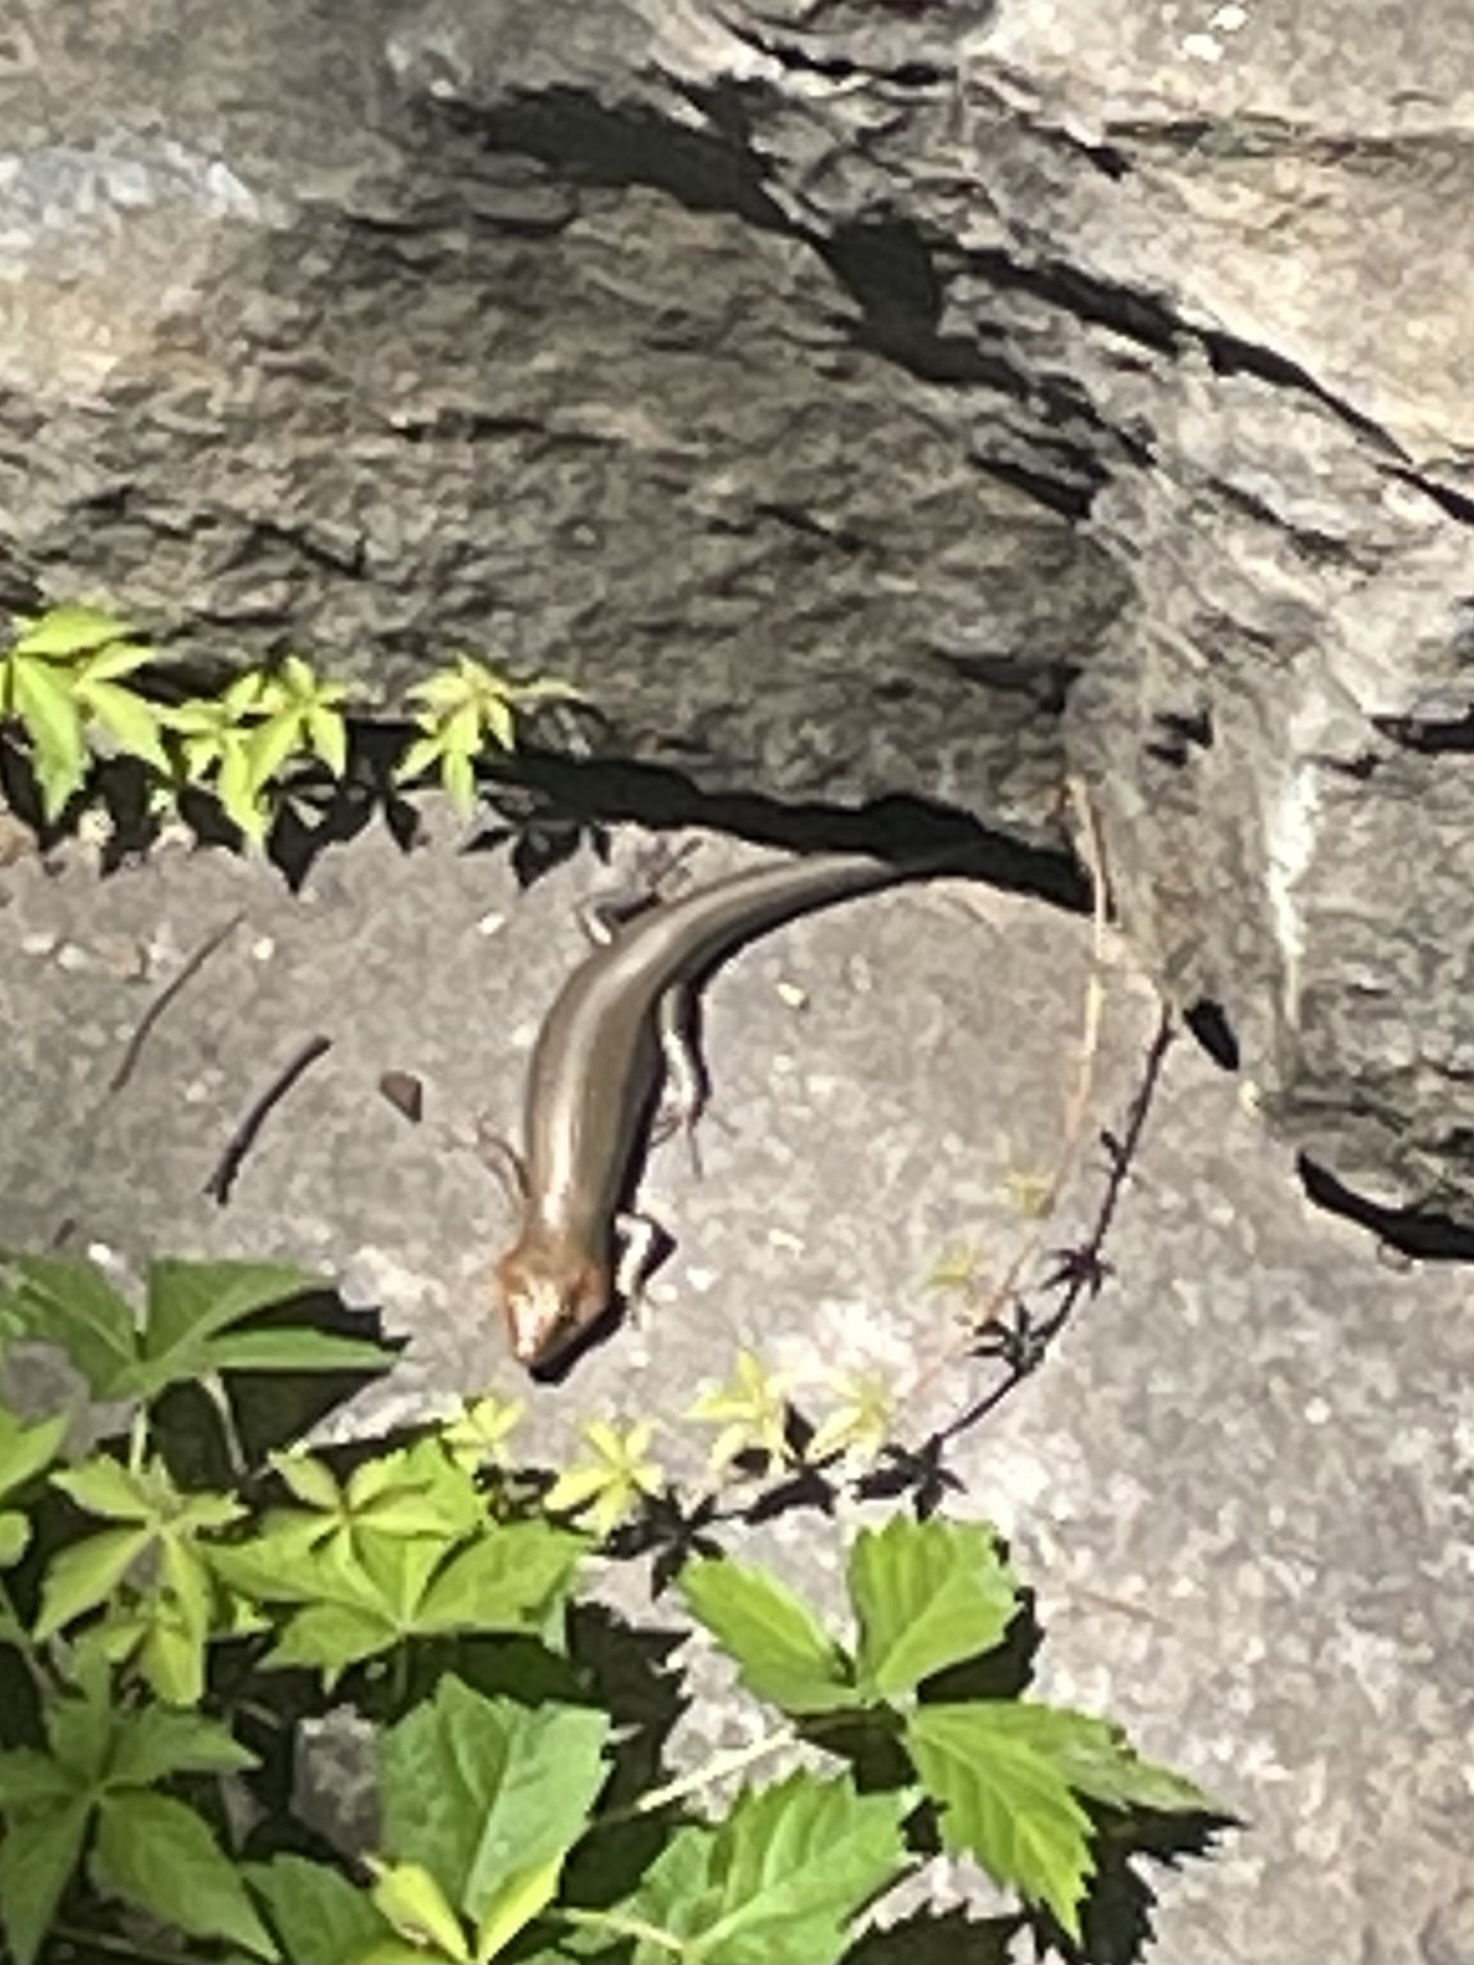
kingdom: Animalia
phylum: Chordata
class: Squamata
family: Scincidae
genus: Plestiodon
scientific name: Plestiodon laticeps
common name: Broadhead skink
